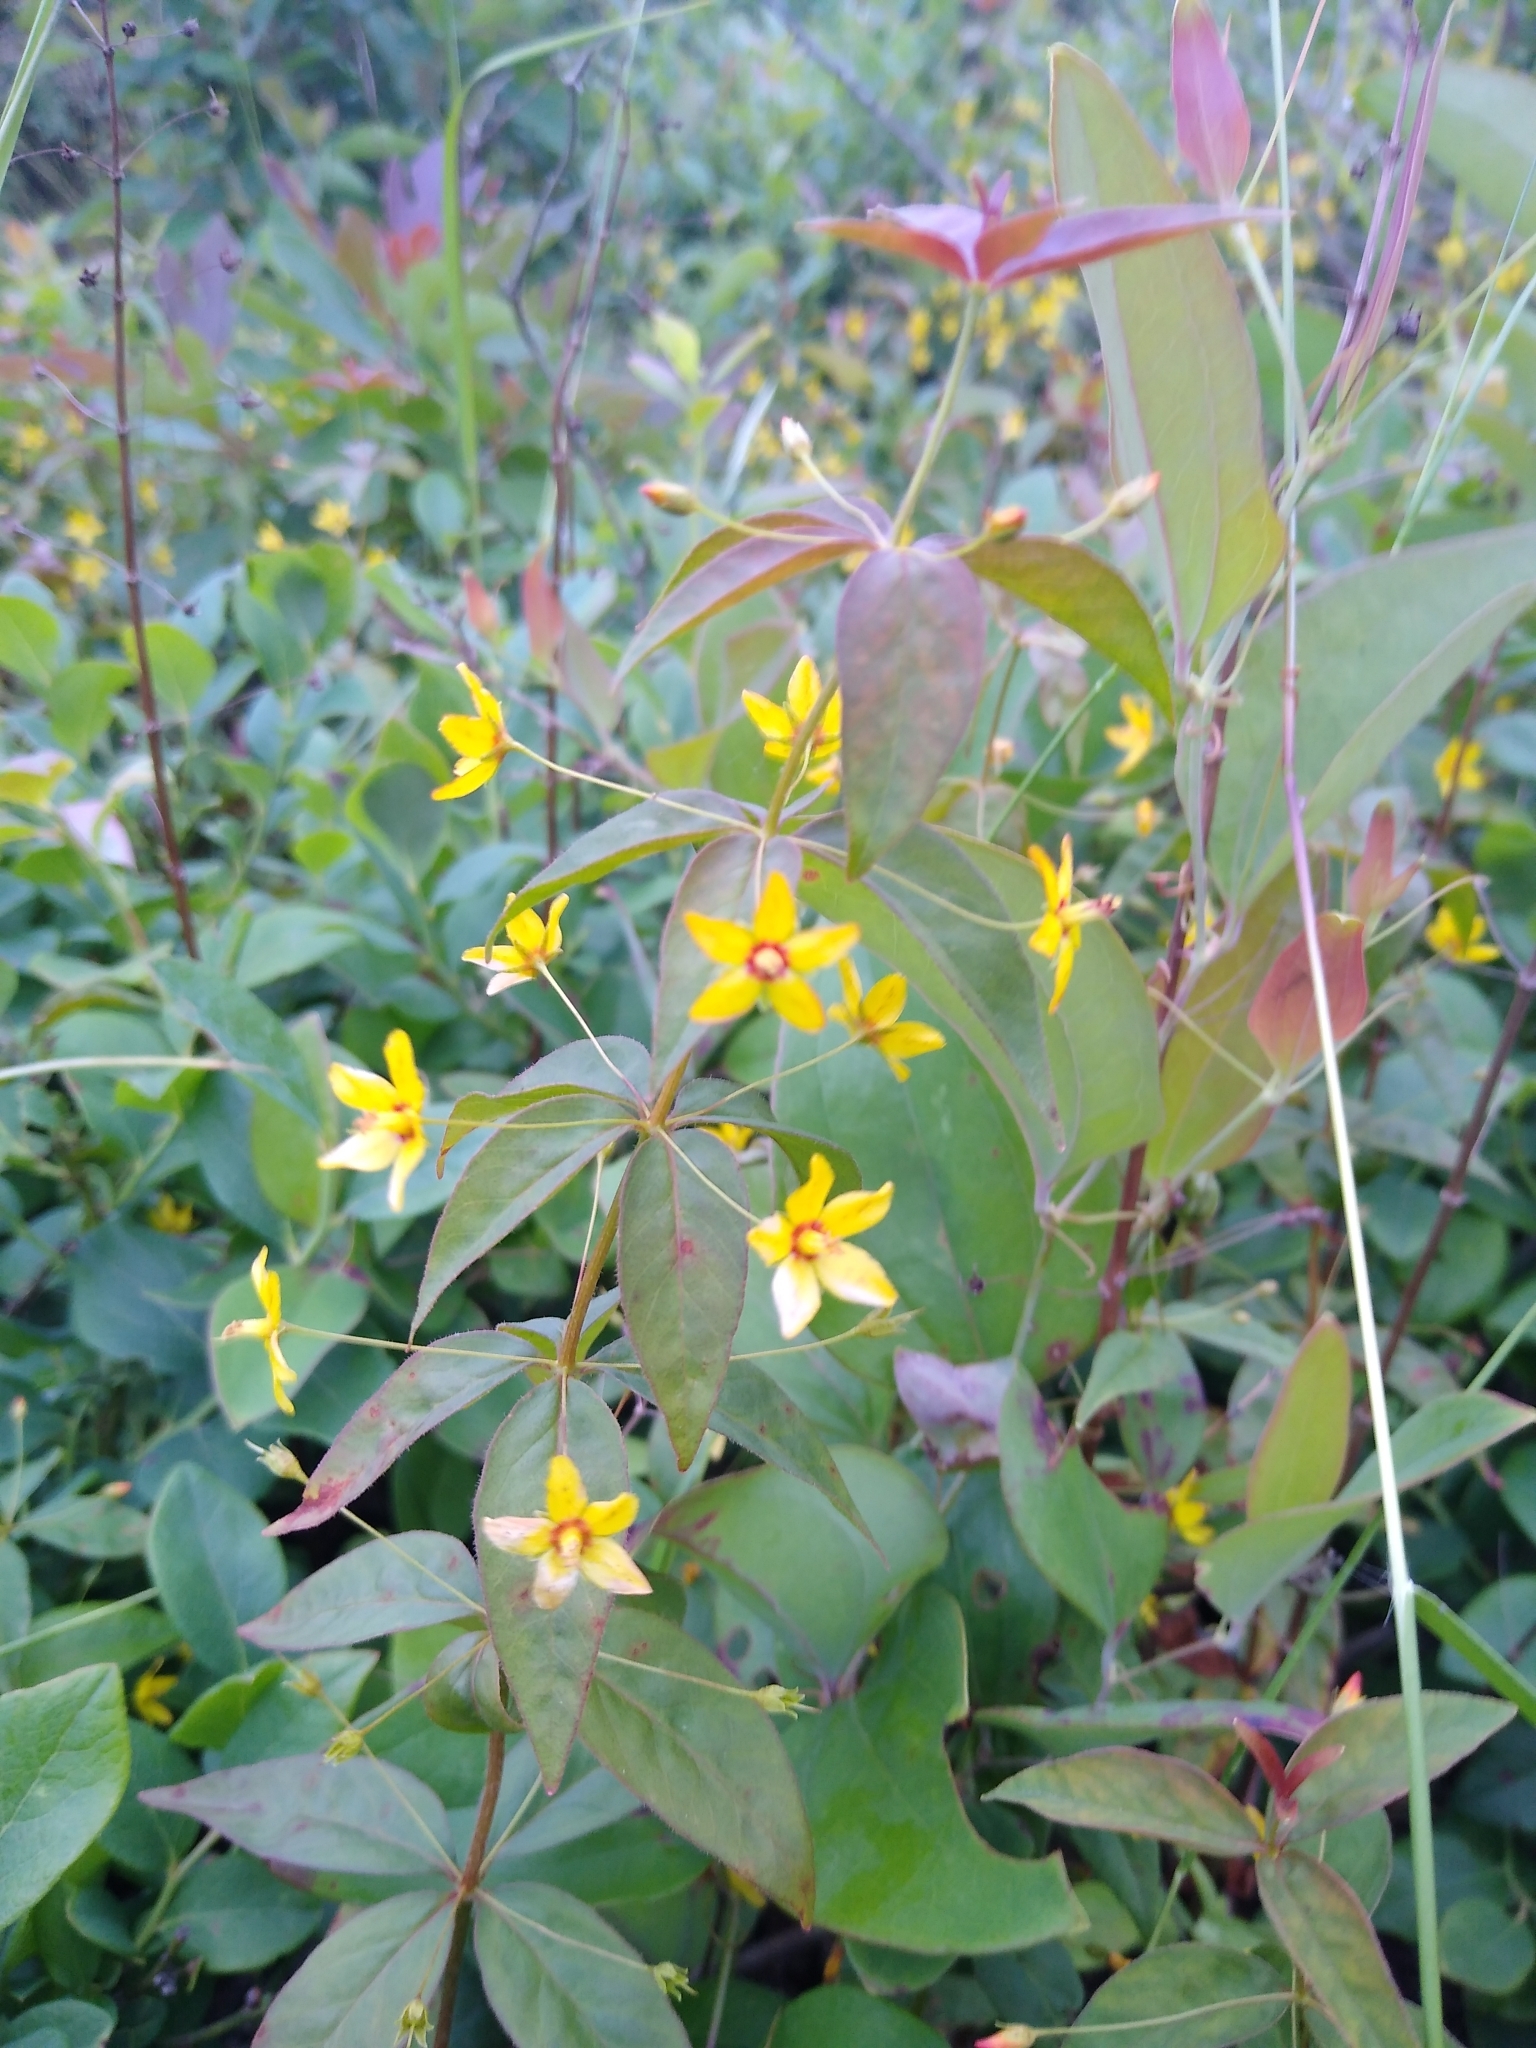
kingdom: Plantae
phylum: Tracheophyta
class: Magnoliopsida
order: Ericales
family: Primulaceae
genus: Lysimachia
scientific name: Lysimachia quadrifolia
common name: Whorled loosestrife
